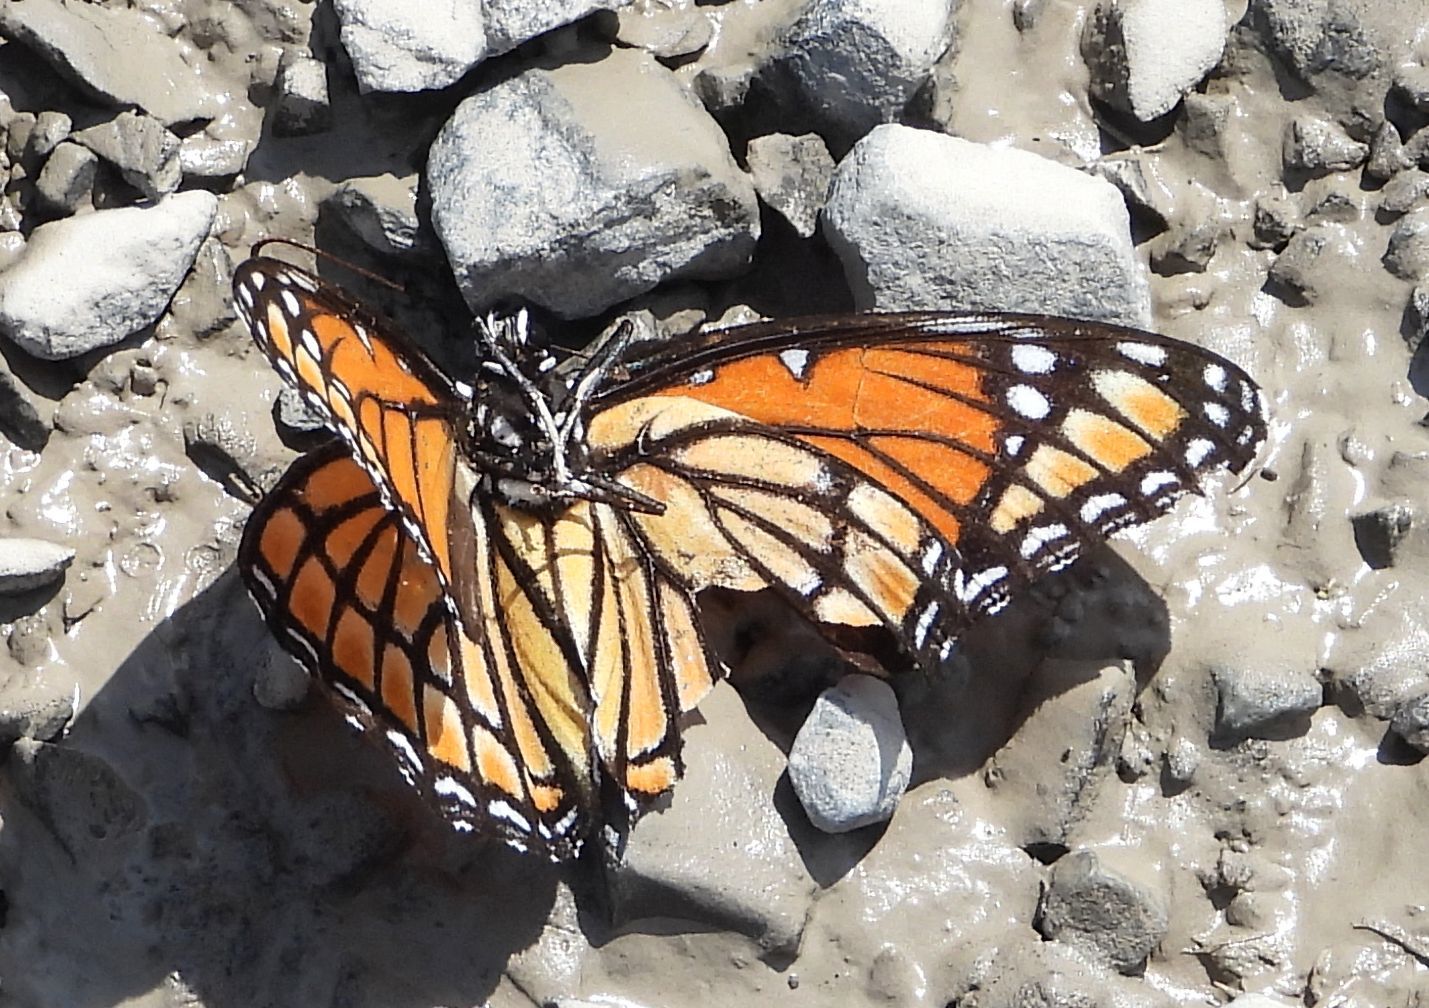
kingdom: Animalia
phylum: Arthropoda
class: Insecta
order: Lepidoptera
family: Nymphalidae
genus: Limenitis
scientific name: Limenitis archippus
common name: Viceroy
